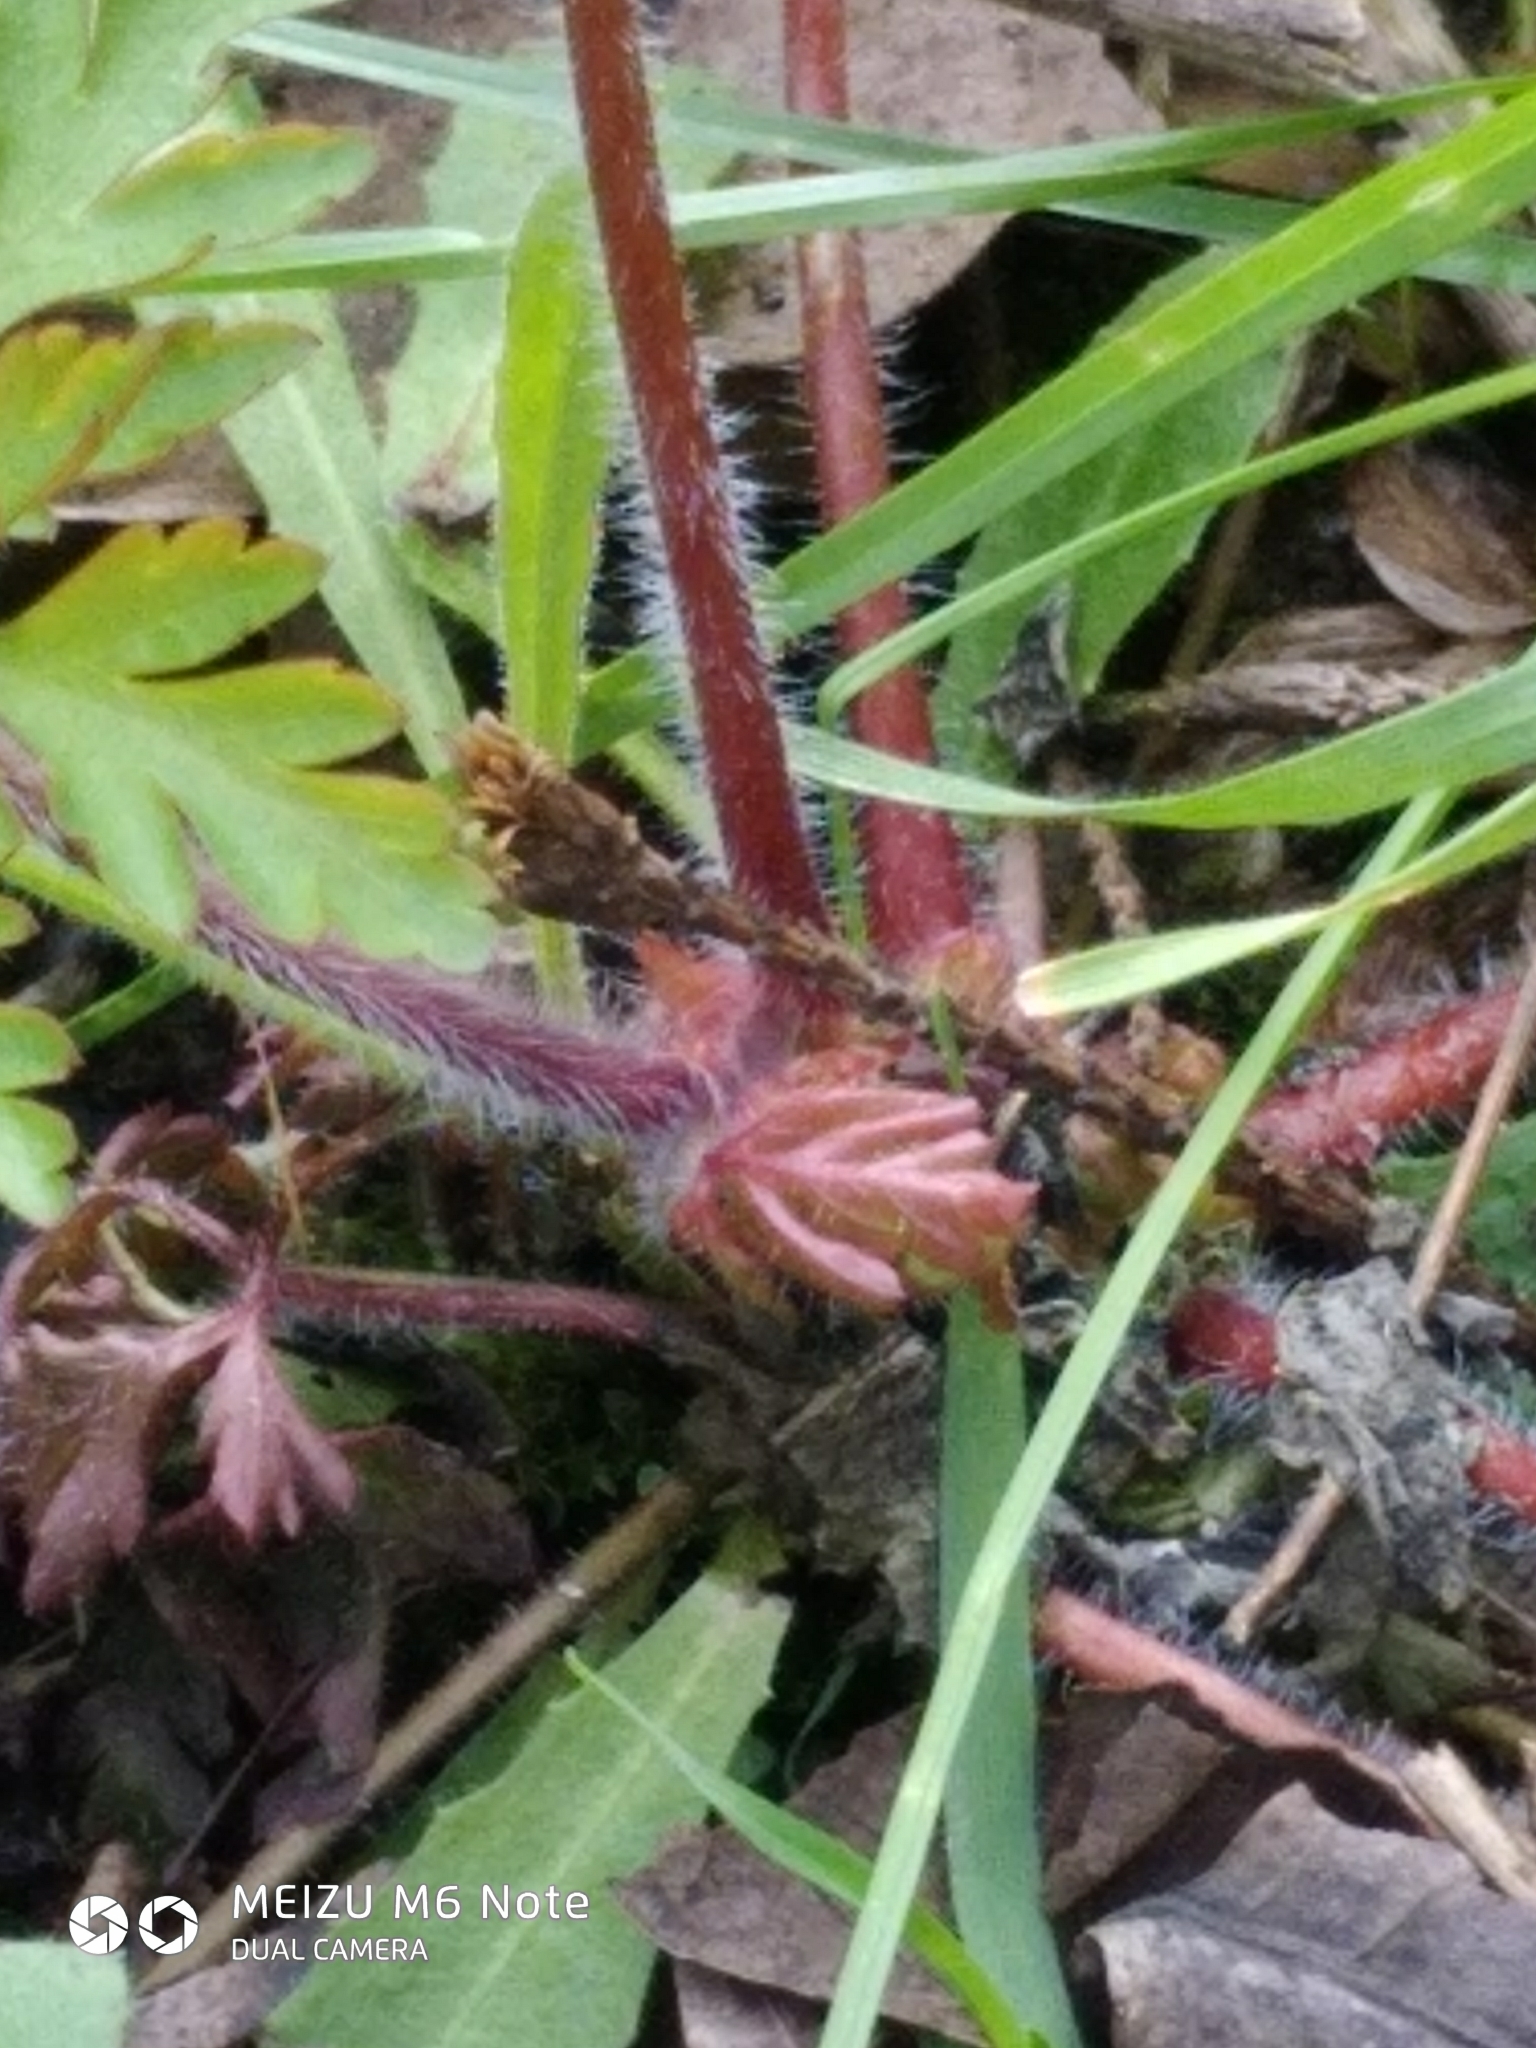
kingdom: Plantae
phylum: Tracheophyta
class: Magnoliopsida
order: Geraniales
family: Geraniaceae
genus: Geranium
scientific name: Geranium robertianum
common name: Herb-robert
